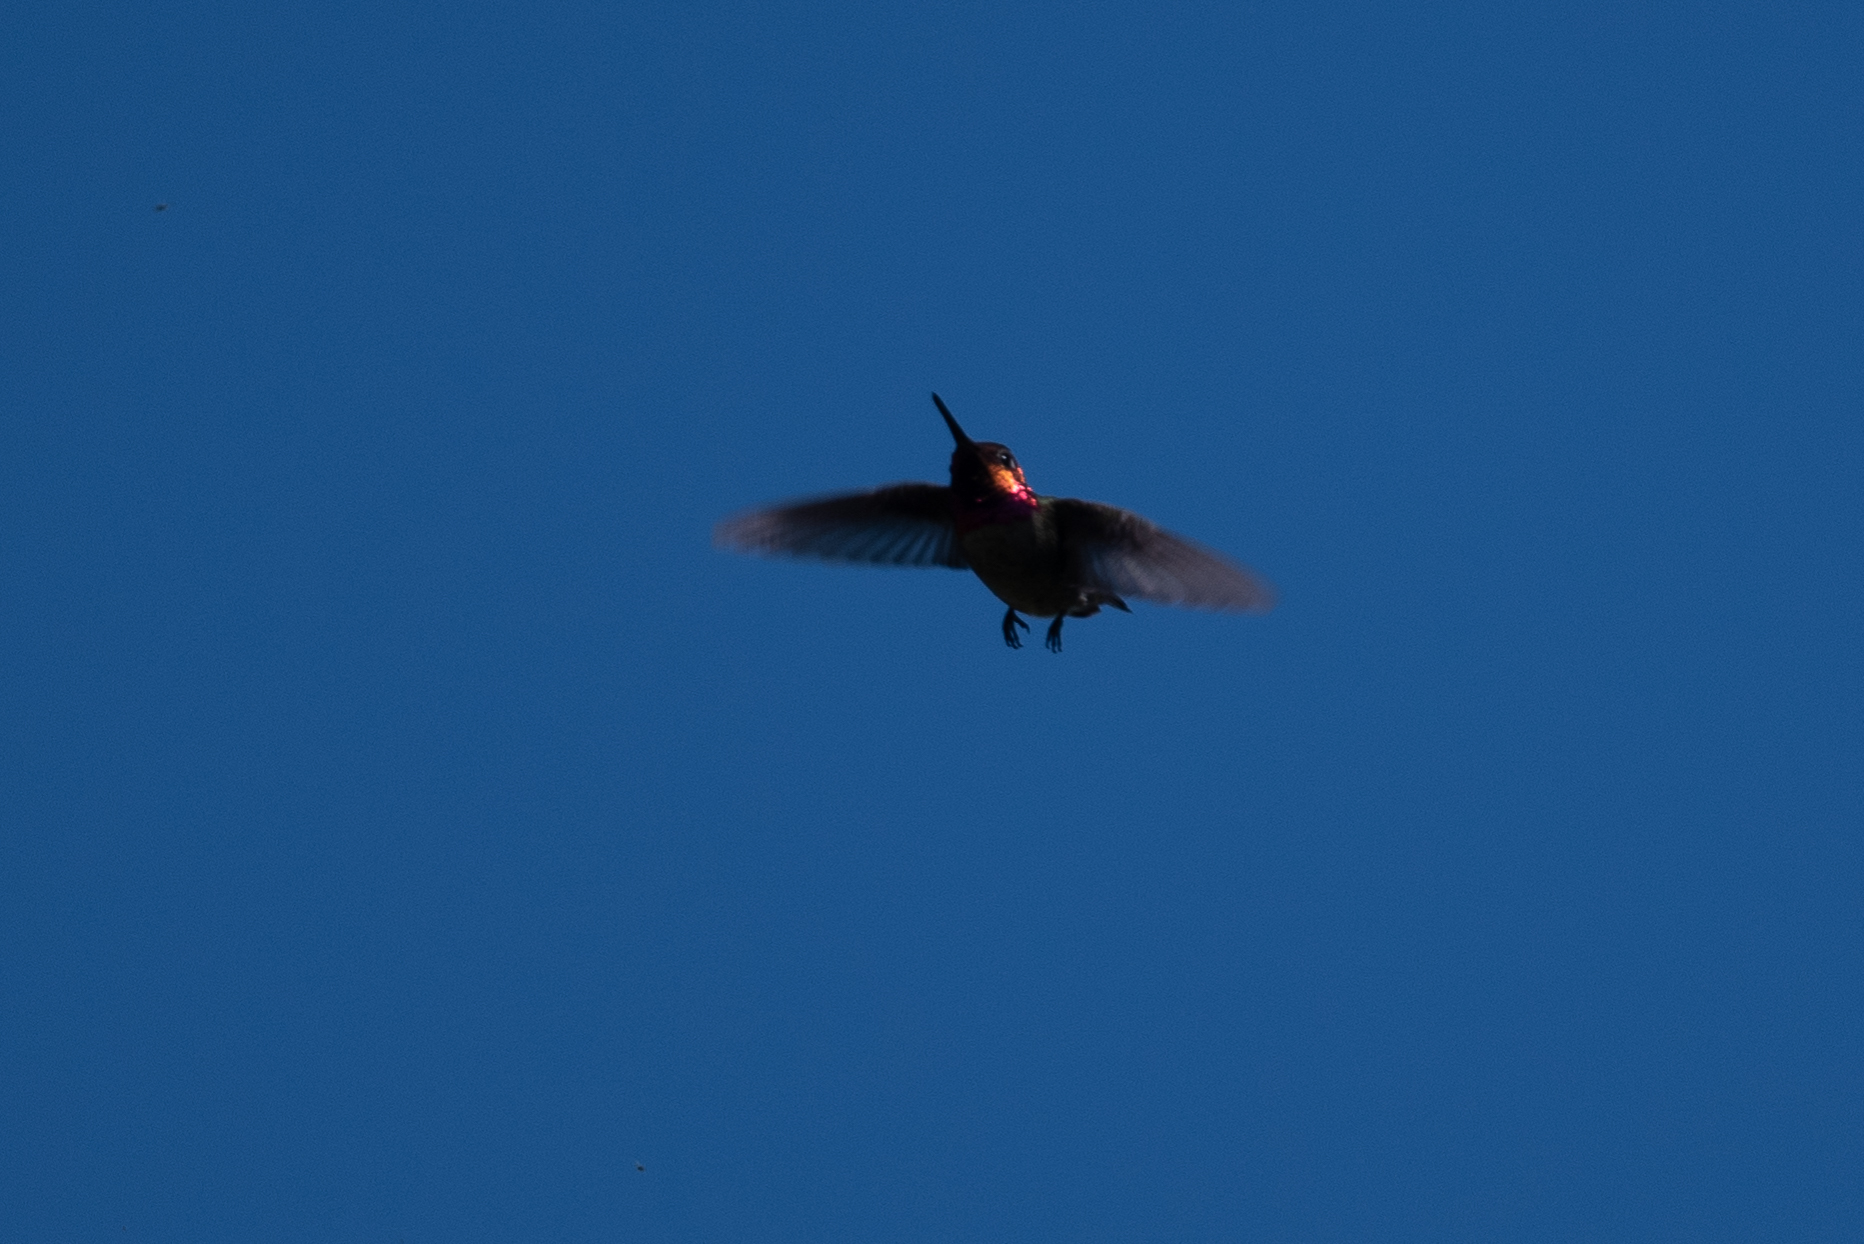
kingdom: Animalia
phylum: Chordata
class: Aves
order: Apodiformes
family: Trochilidae
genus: Calypte
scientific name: Calypte anna
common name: Anna's hummingbird
